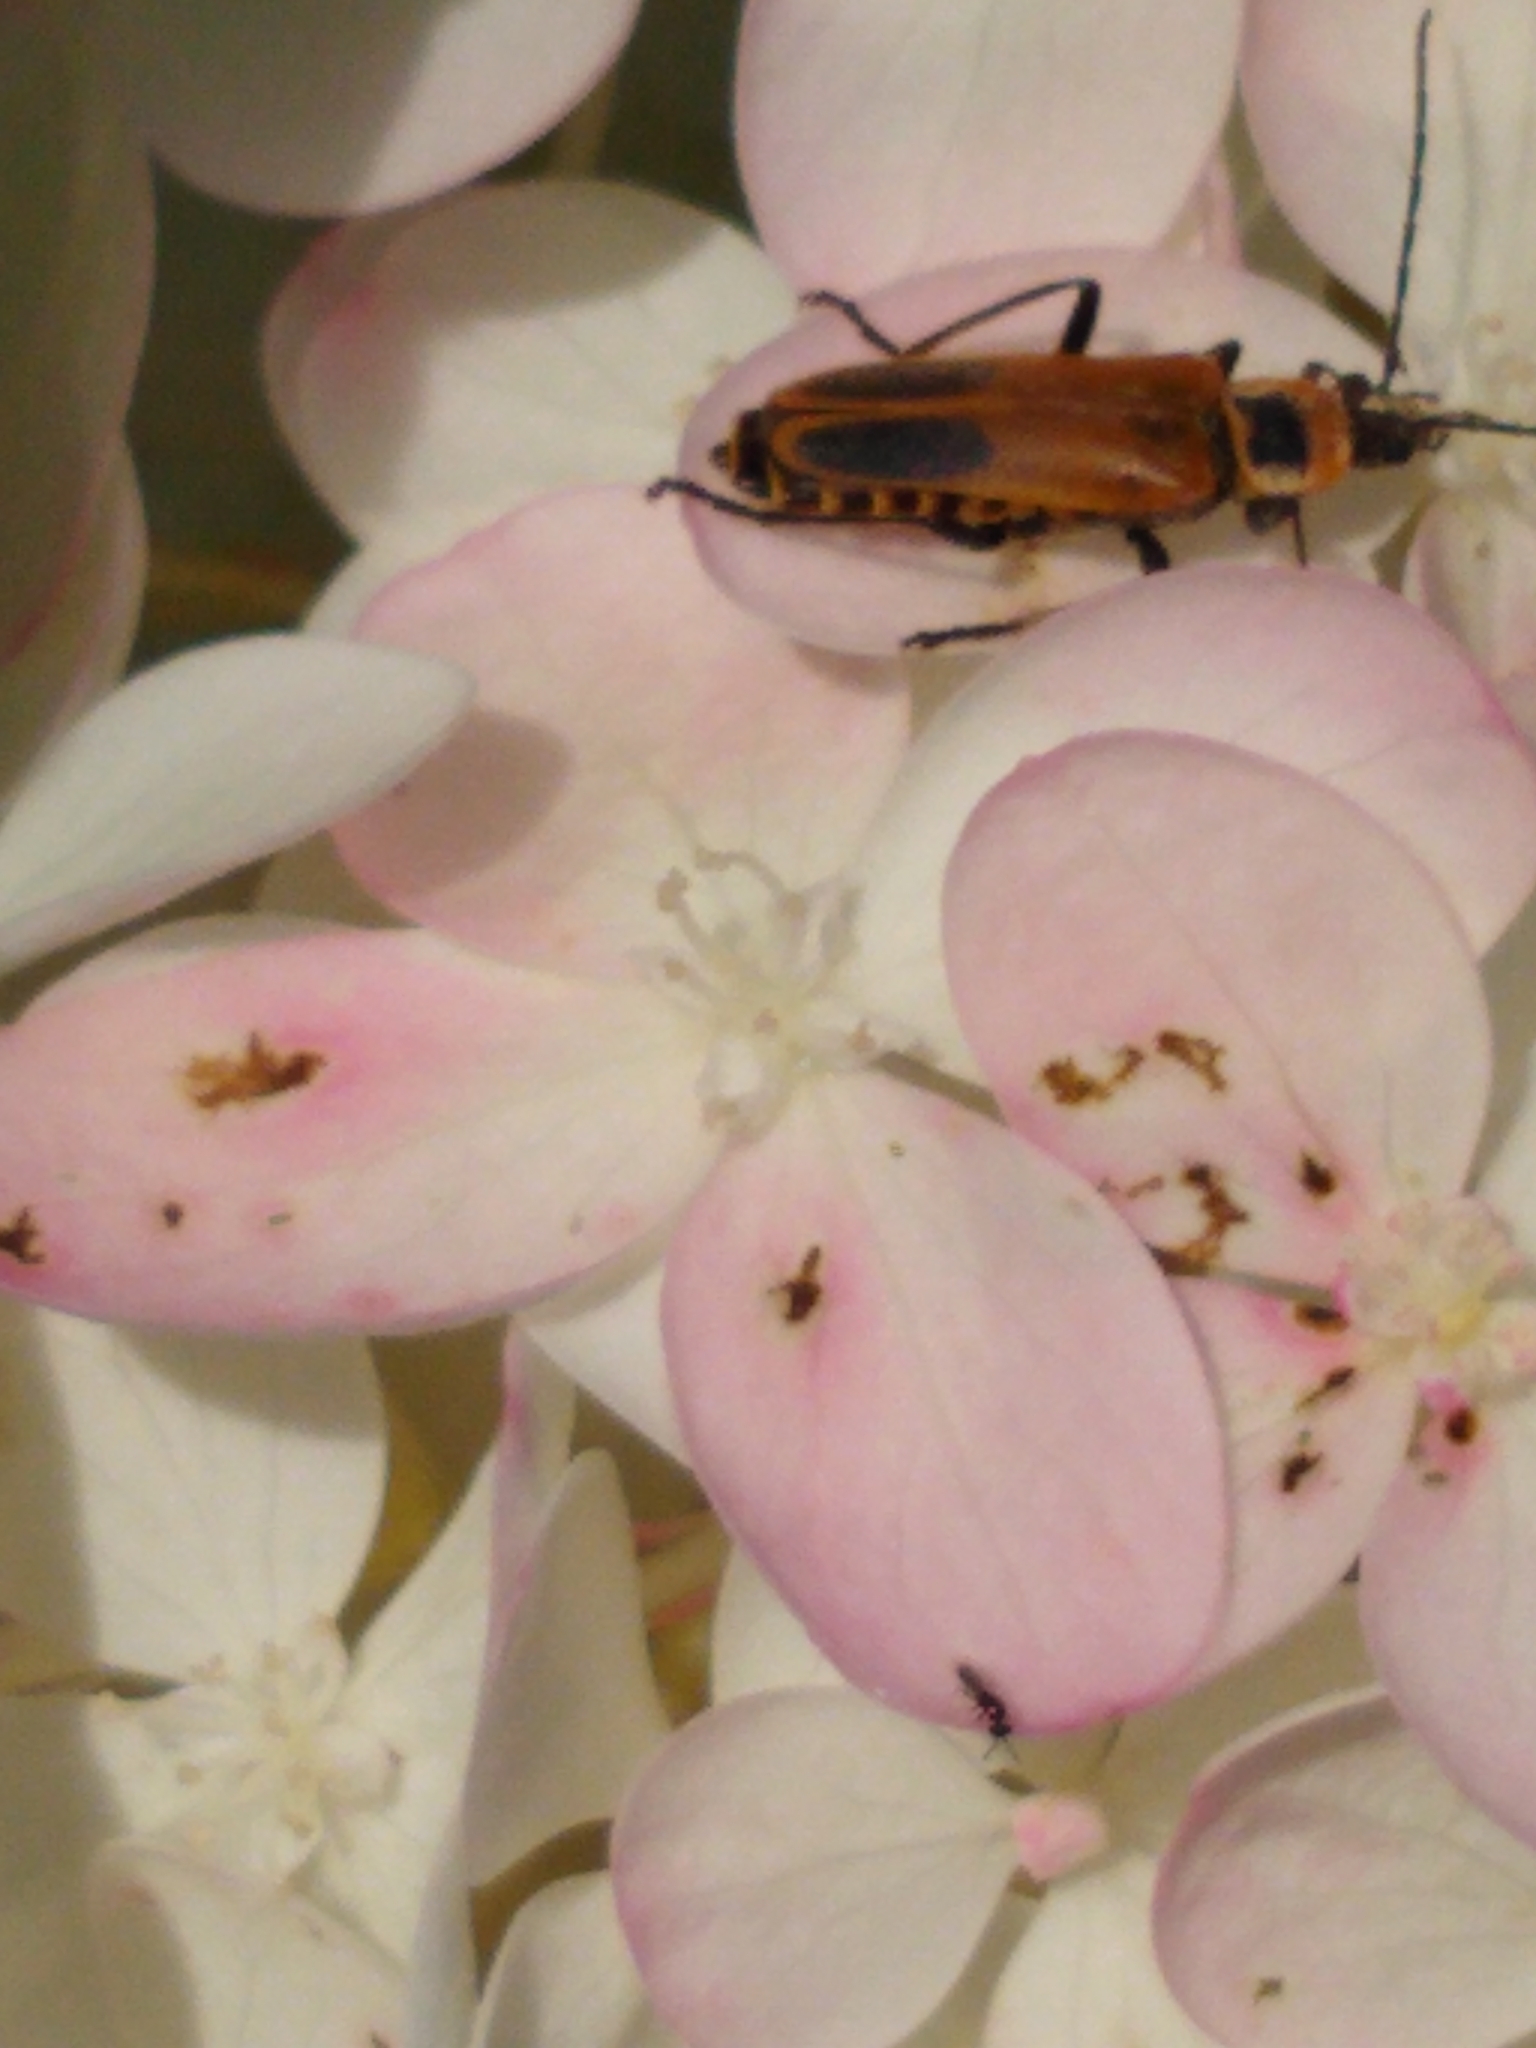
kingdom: Animalia
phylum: Arthropoda
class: Insecta
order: Coleoptera
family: Cantharidae
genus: Chauliognathus
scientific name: Chauliognathus pensylvanicus
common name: Goldenrod soldier beetle
